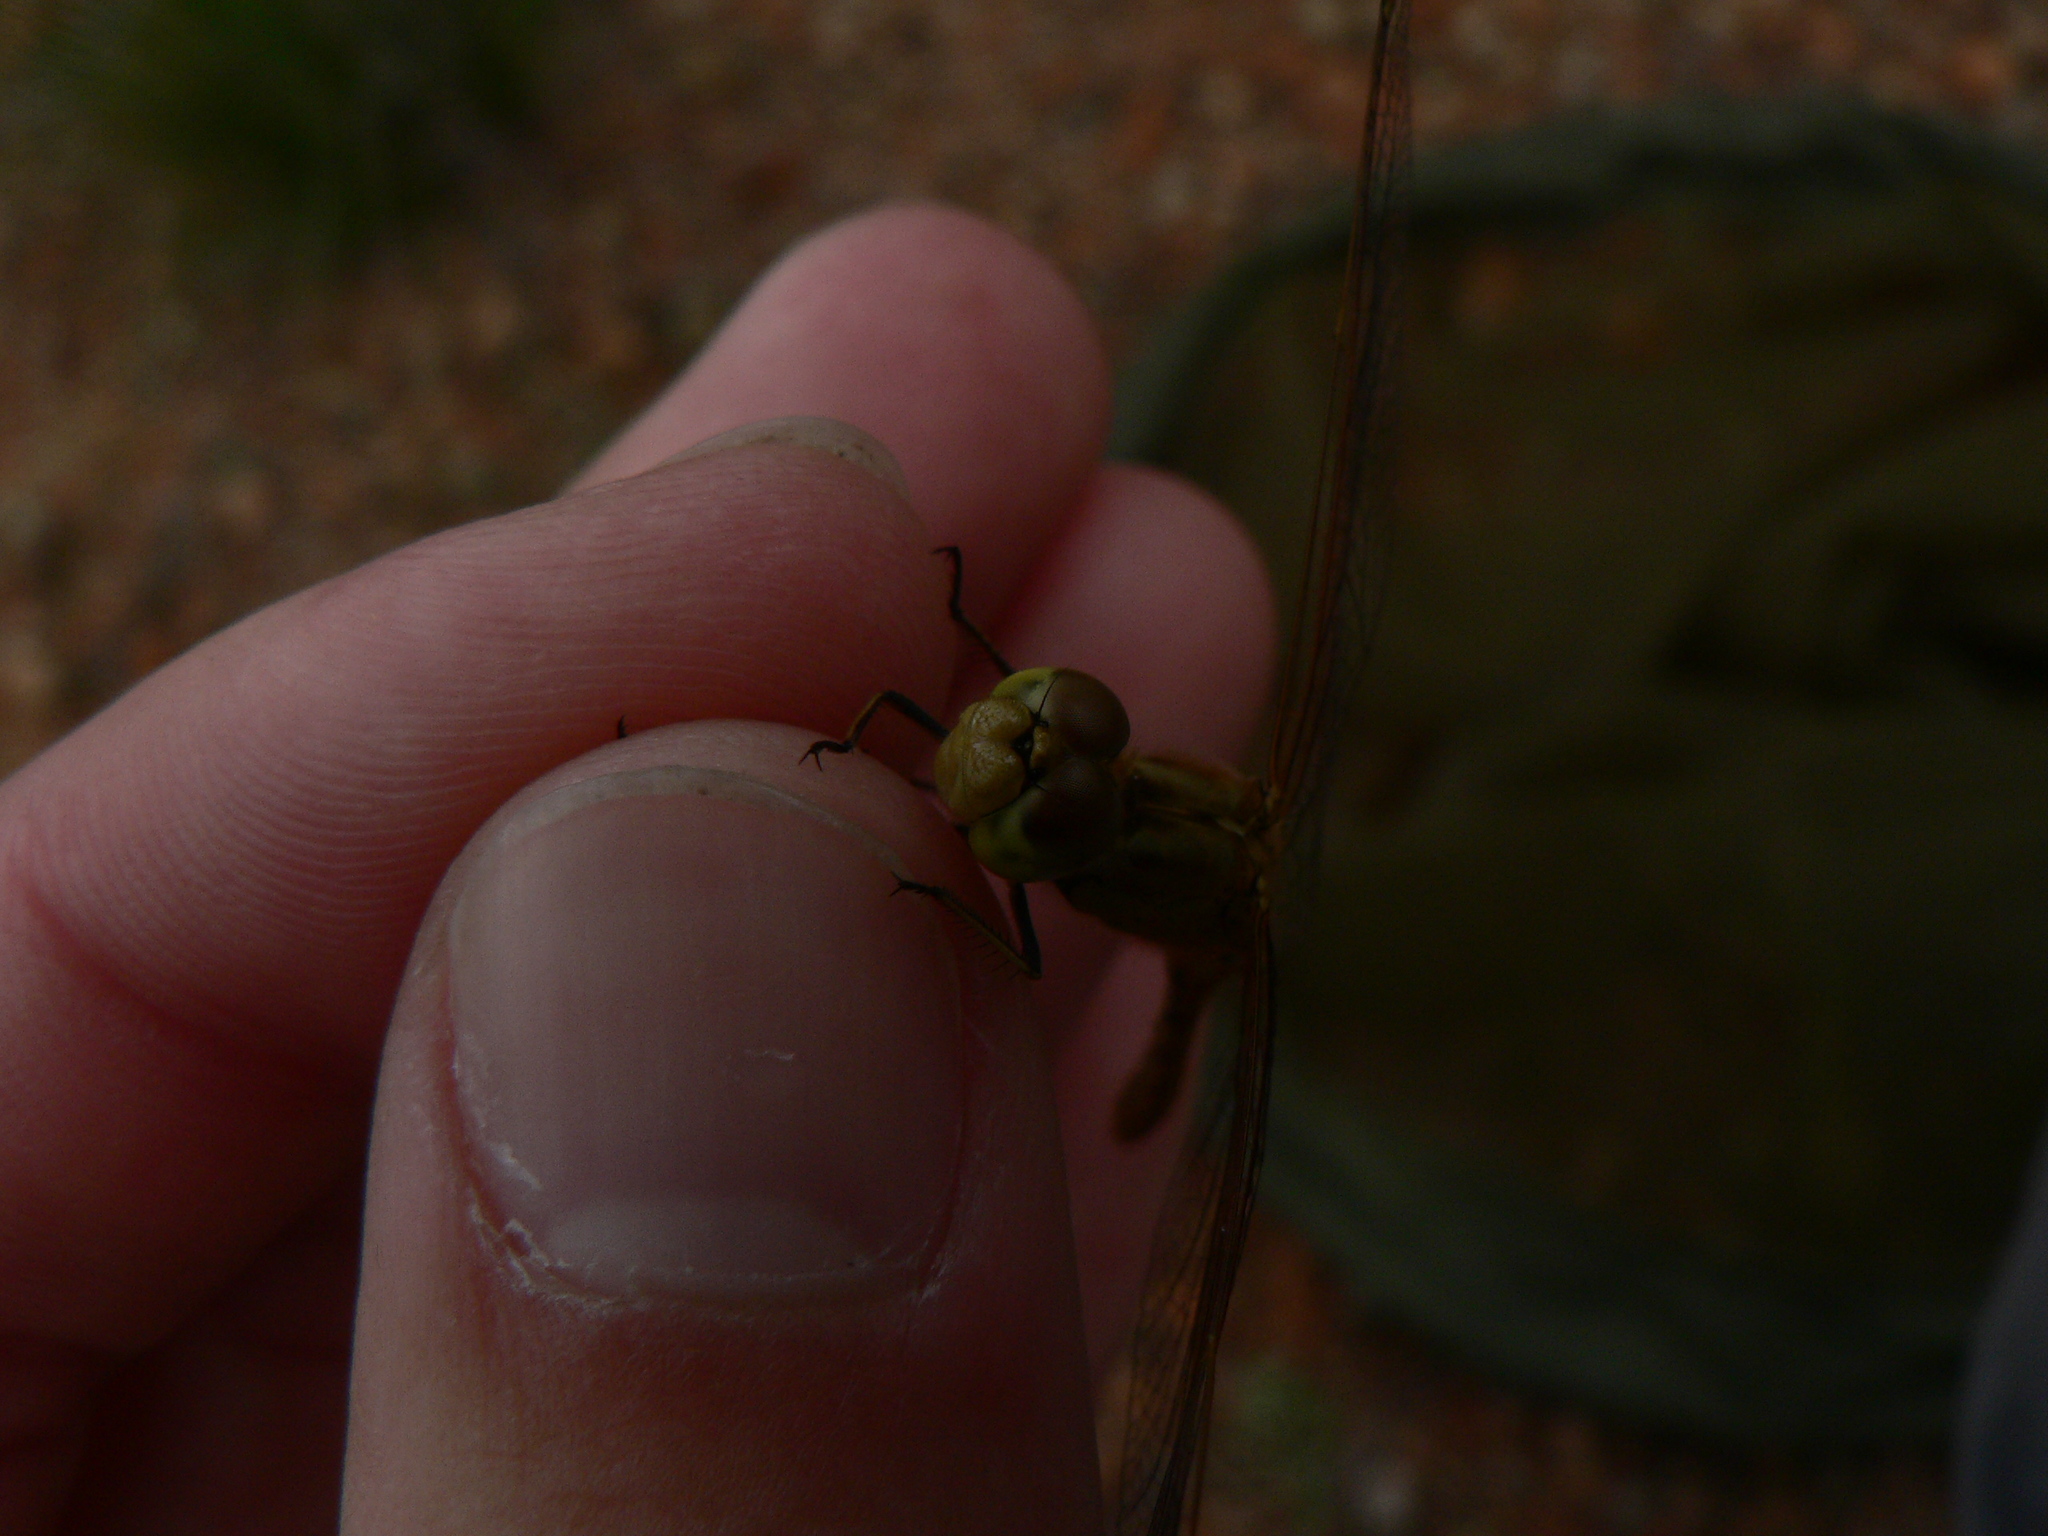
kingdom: Animalia
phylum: Arthropoda
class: Insecta
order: Odonata
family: Libellulidae
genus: Sympetrum
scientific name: Sympetrum meridionale
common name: Southern darter
